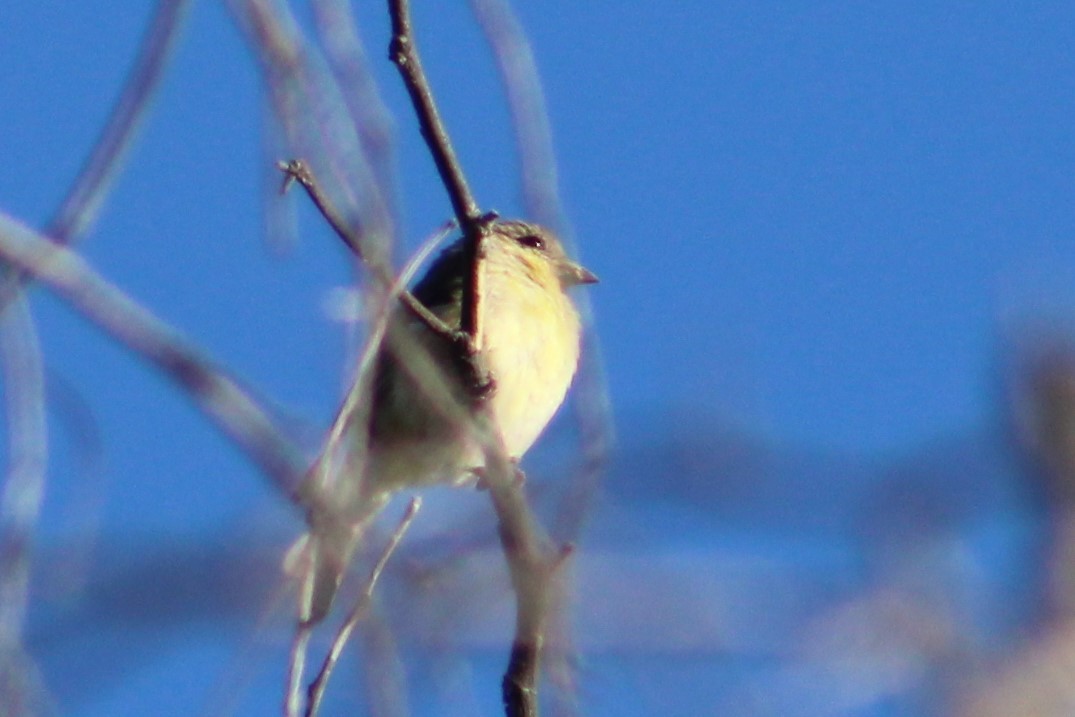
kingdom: Animalia
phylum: Chordata
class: Aves
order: Passeriformes
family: Fringillidae
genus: Spinus
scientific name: Spinus psaltria
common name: Lesser goldfinch
